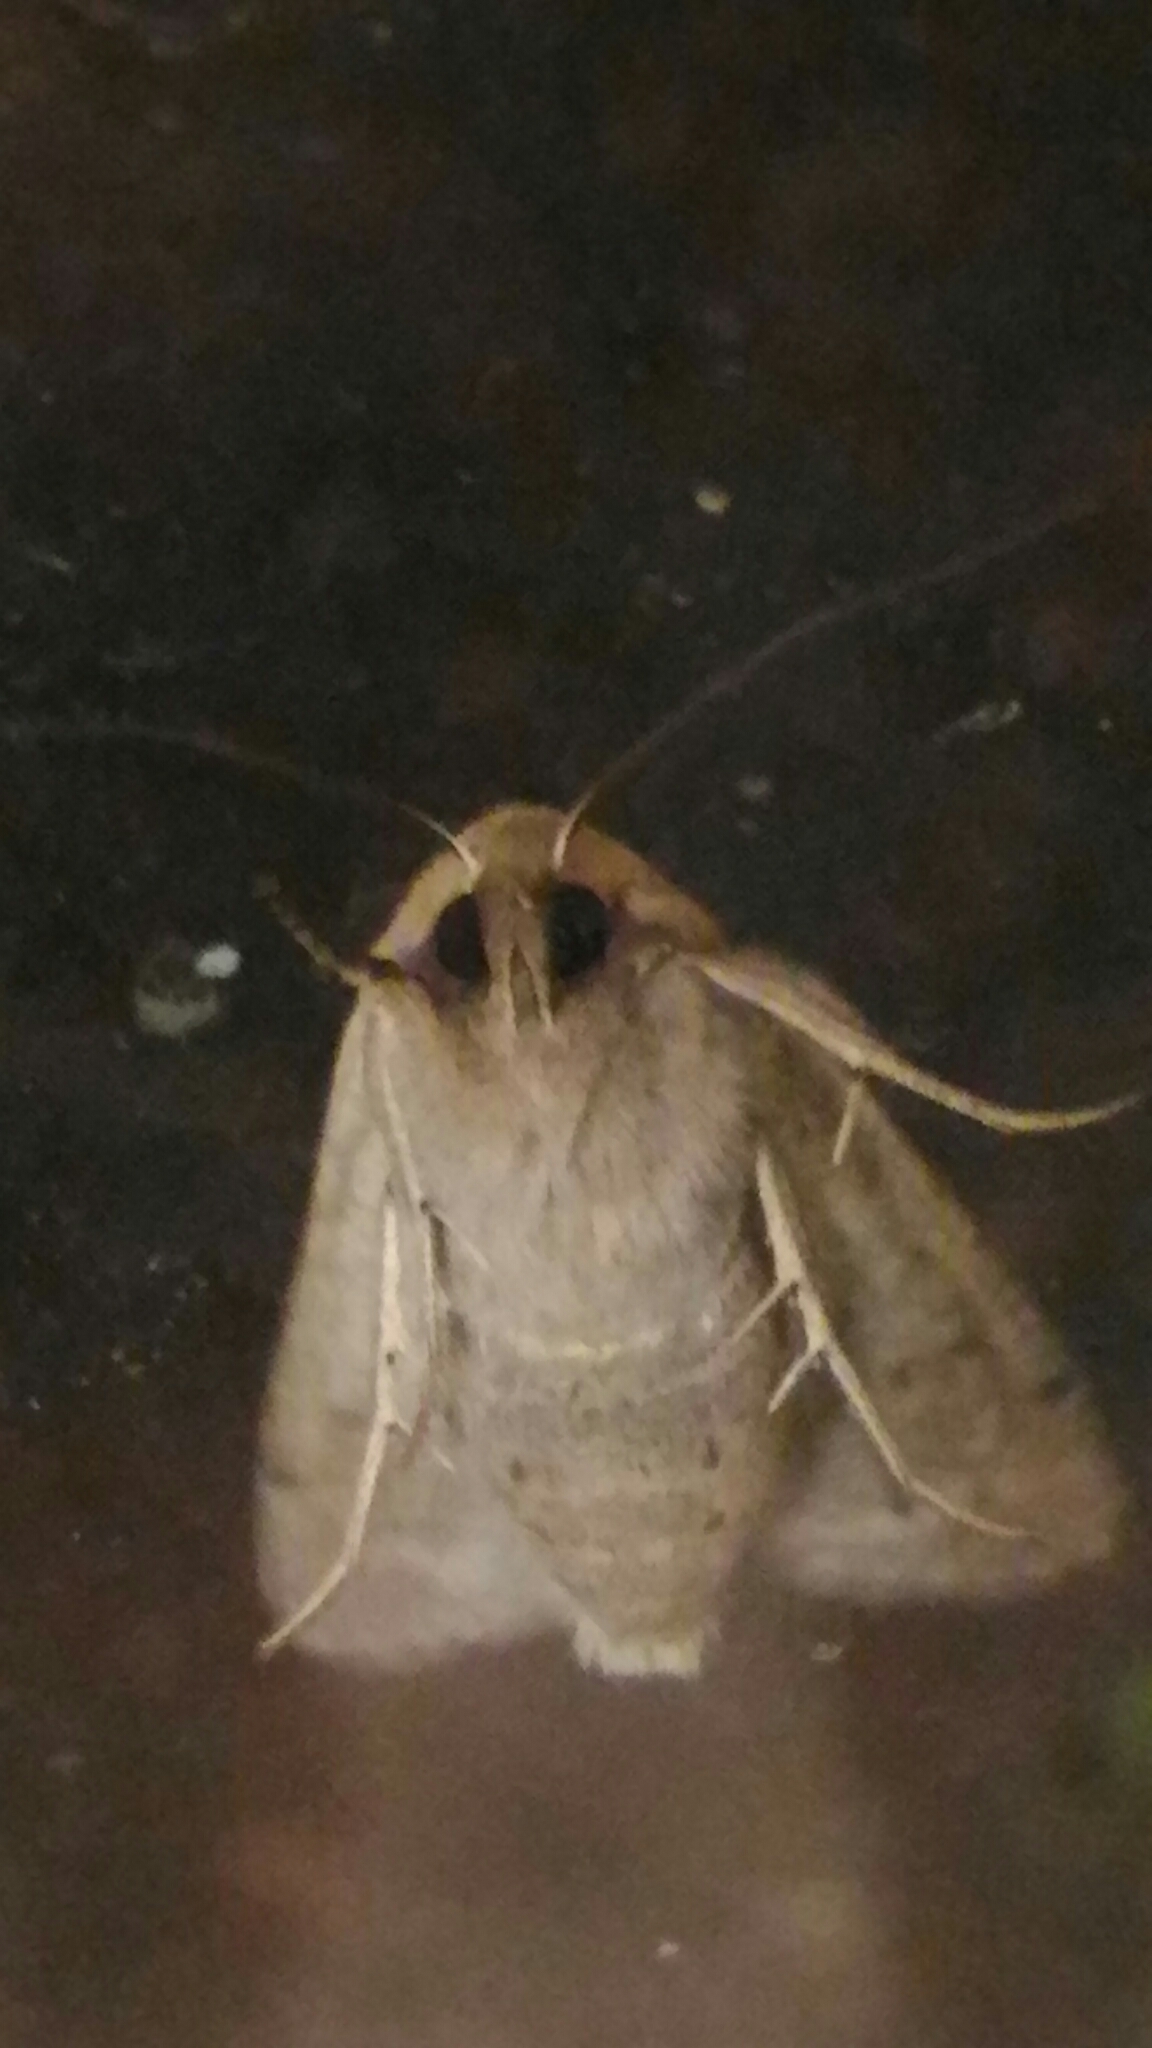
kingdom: Animalia
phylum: Arthropoda
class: Insecta
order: Lepidoptera
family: Noctuidae
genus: Mythimna
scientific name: Mythimna unipuncta
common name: White-speck
